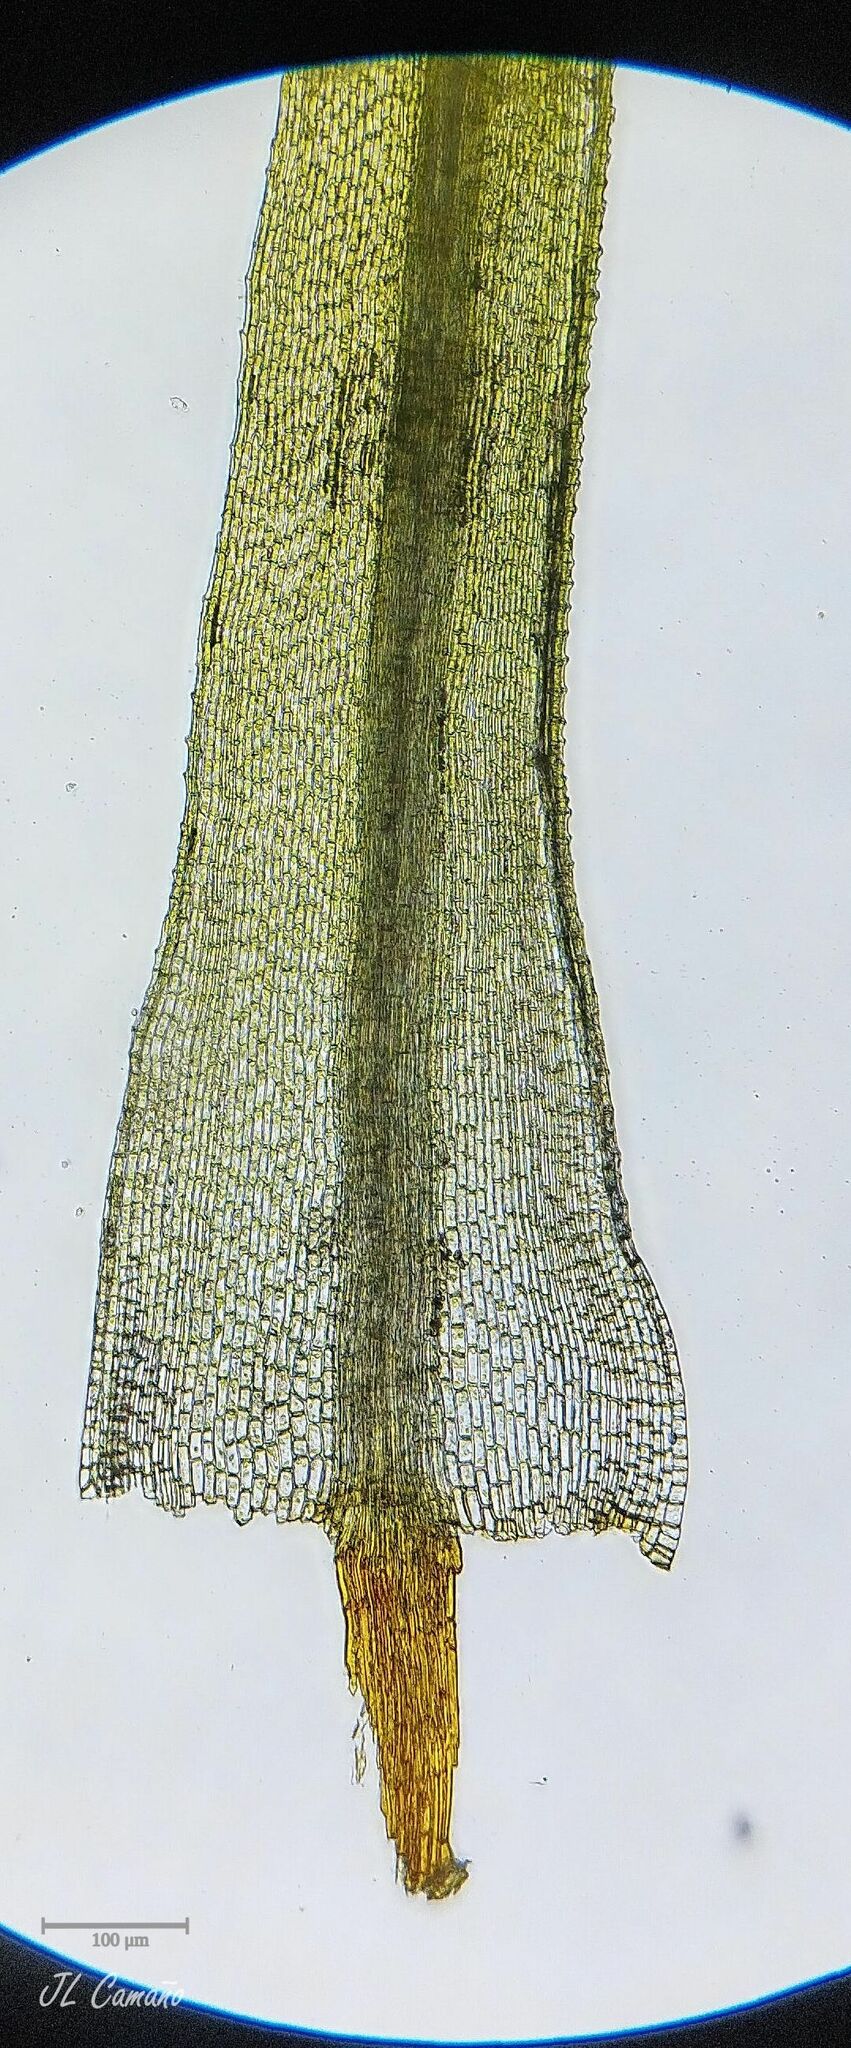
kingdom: Plantae
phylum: Bryophyta
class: Bryopsida
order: Bartramiales
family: Bartramiaceae
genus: Bartramia
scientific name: Bartramia aprica
